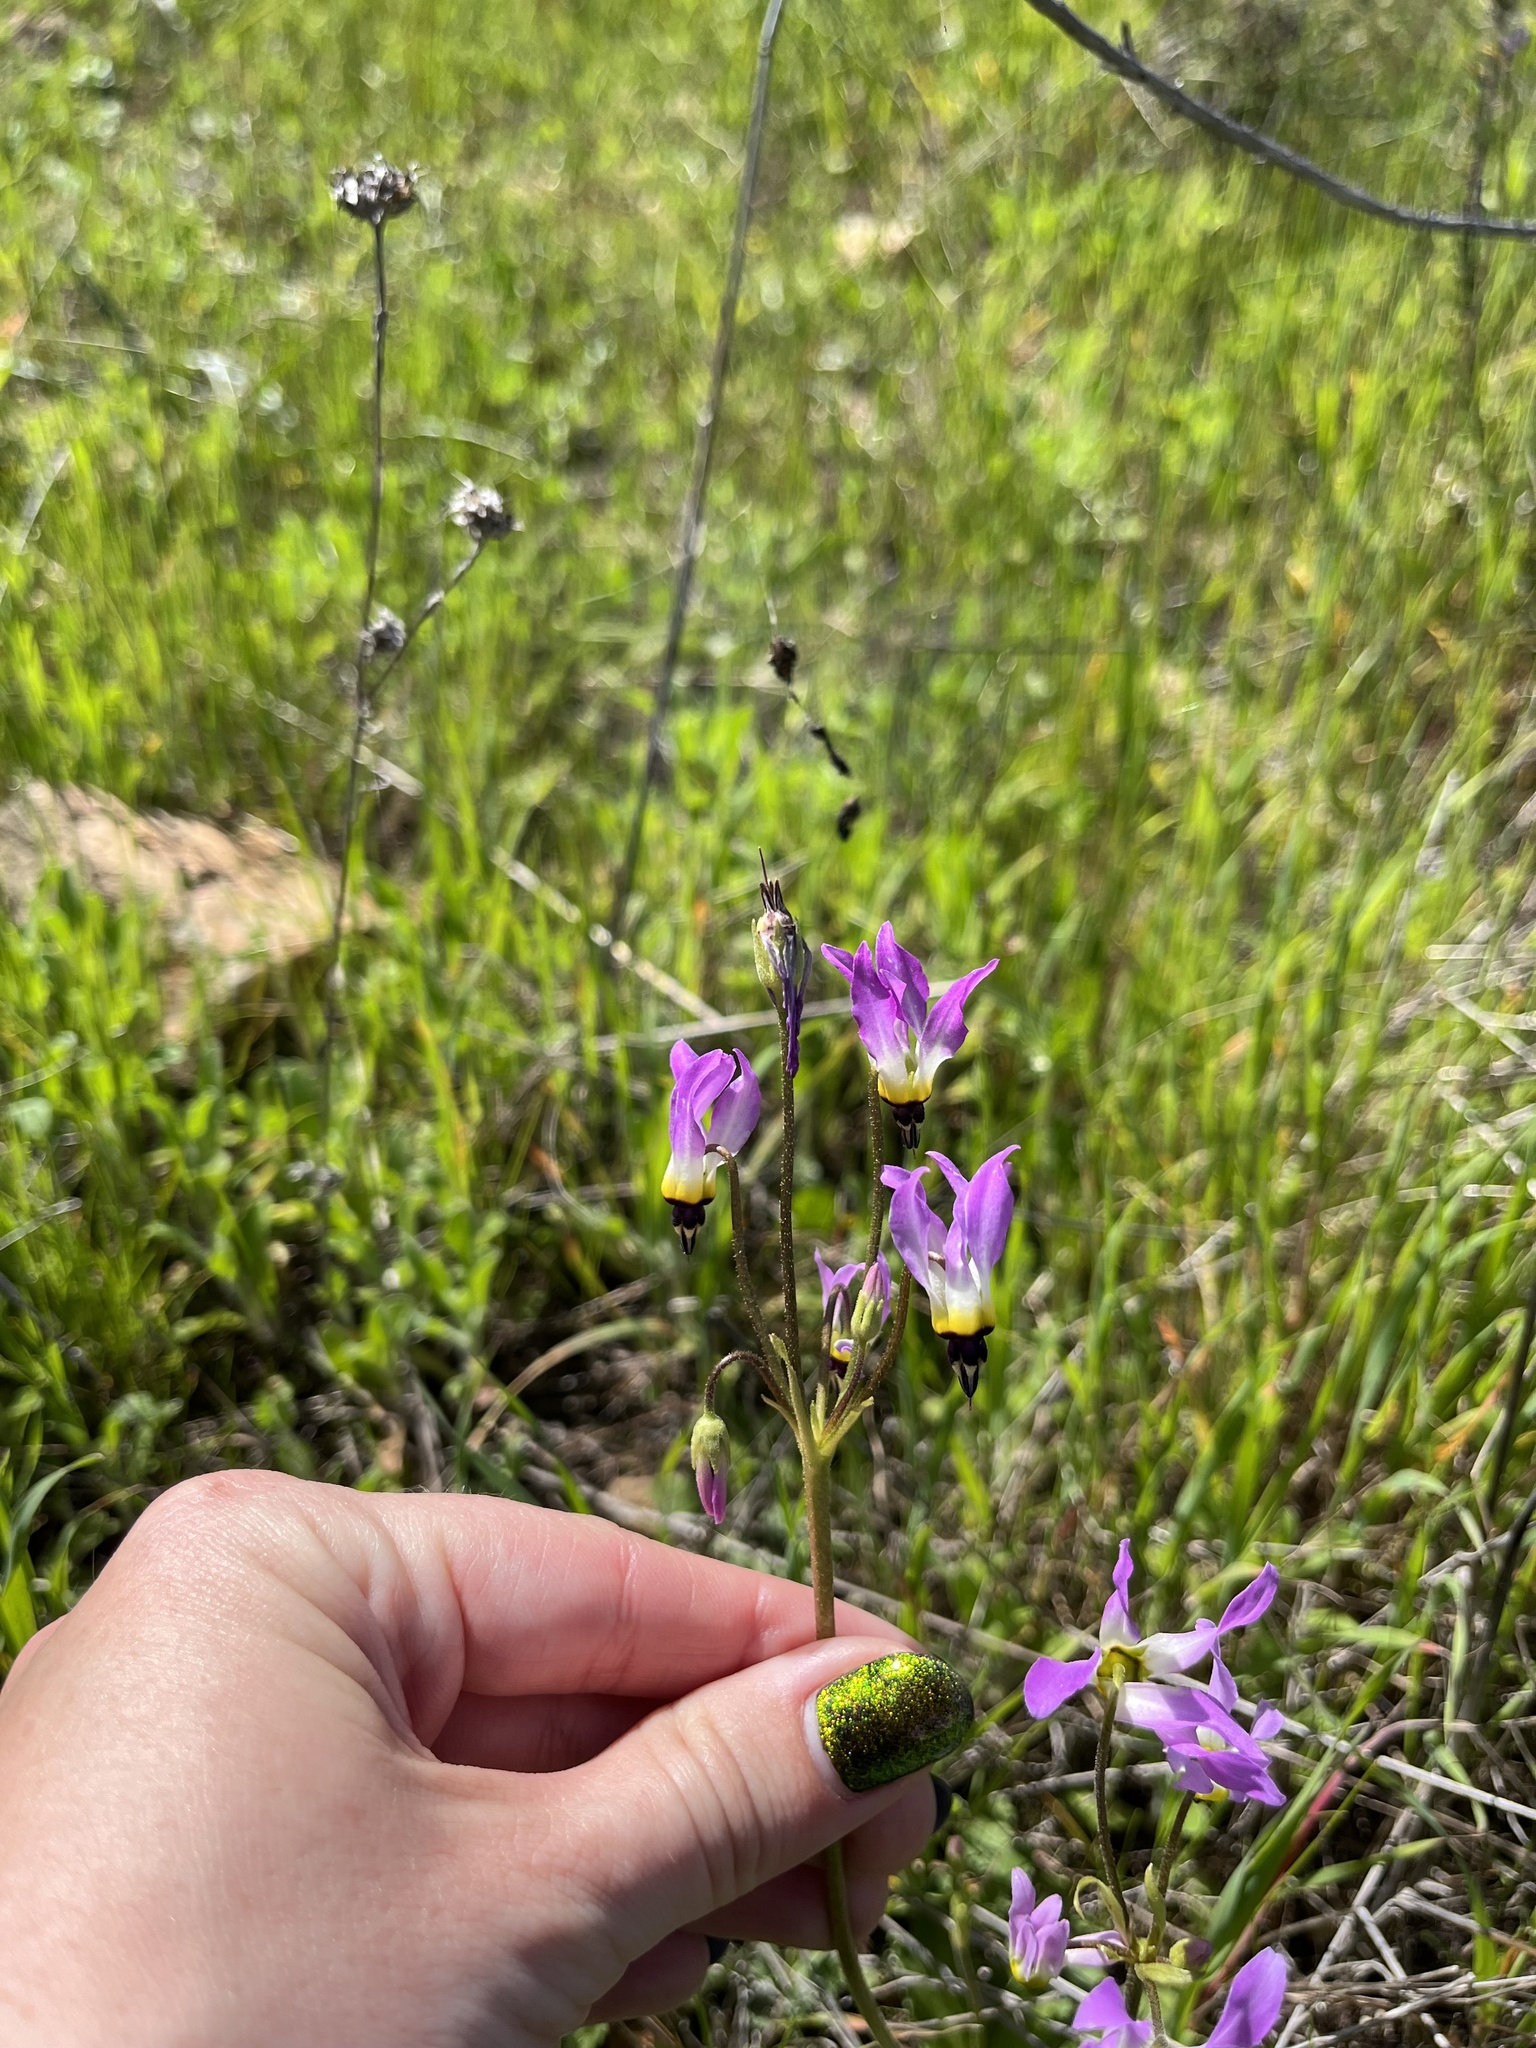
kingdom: Plantae
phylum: Tracheophyta
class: Magnoliopsida
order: Ericales
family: Primulaceae
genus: Dodecatheon
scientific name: Dodecatheon clevelandii
